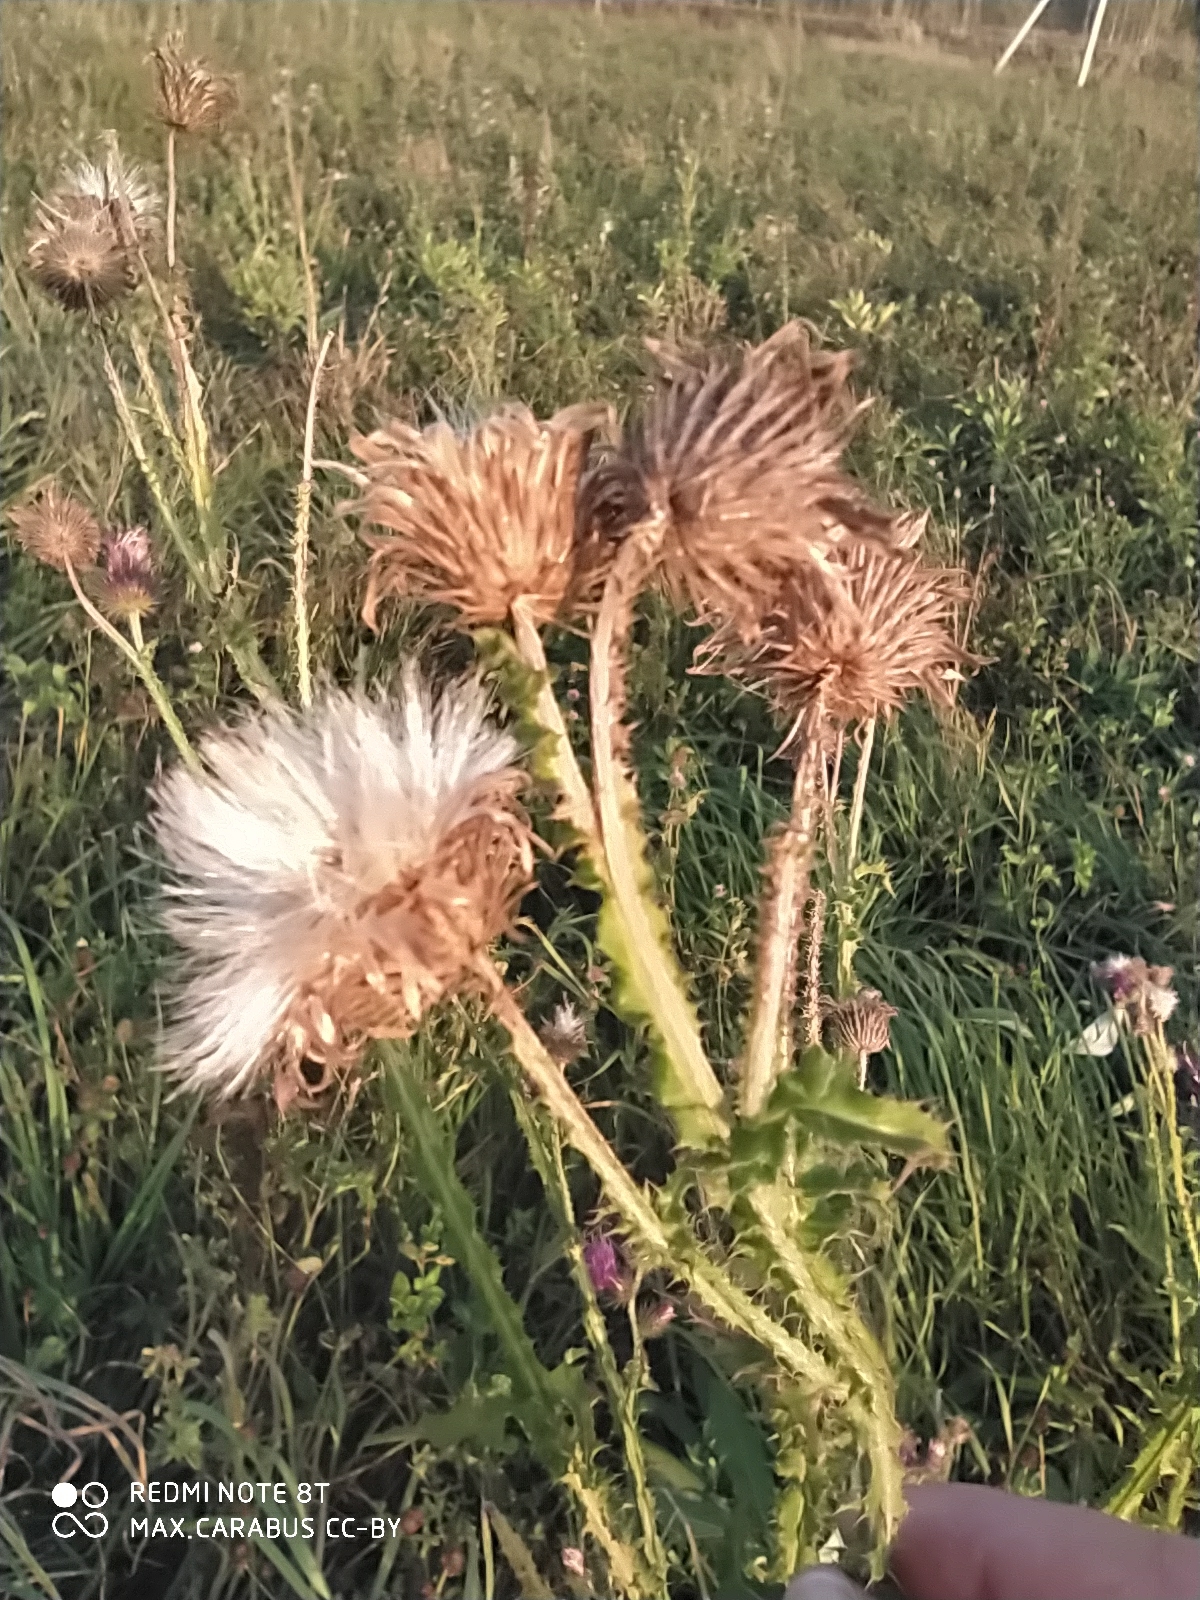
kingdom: Plantae
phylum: Tracheophyta
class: Magnoliopsida
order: Asterales
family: Asteraceae
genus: Carduus
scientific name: Carduus crispus
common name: Welted thistle
